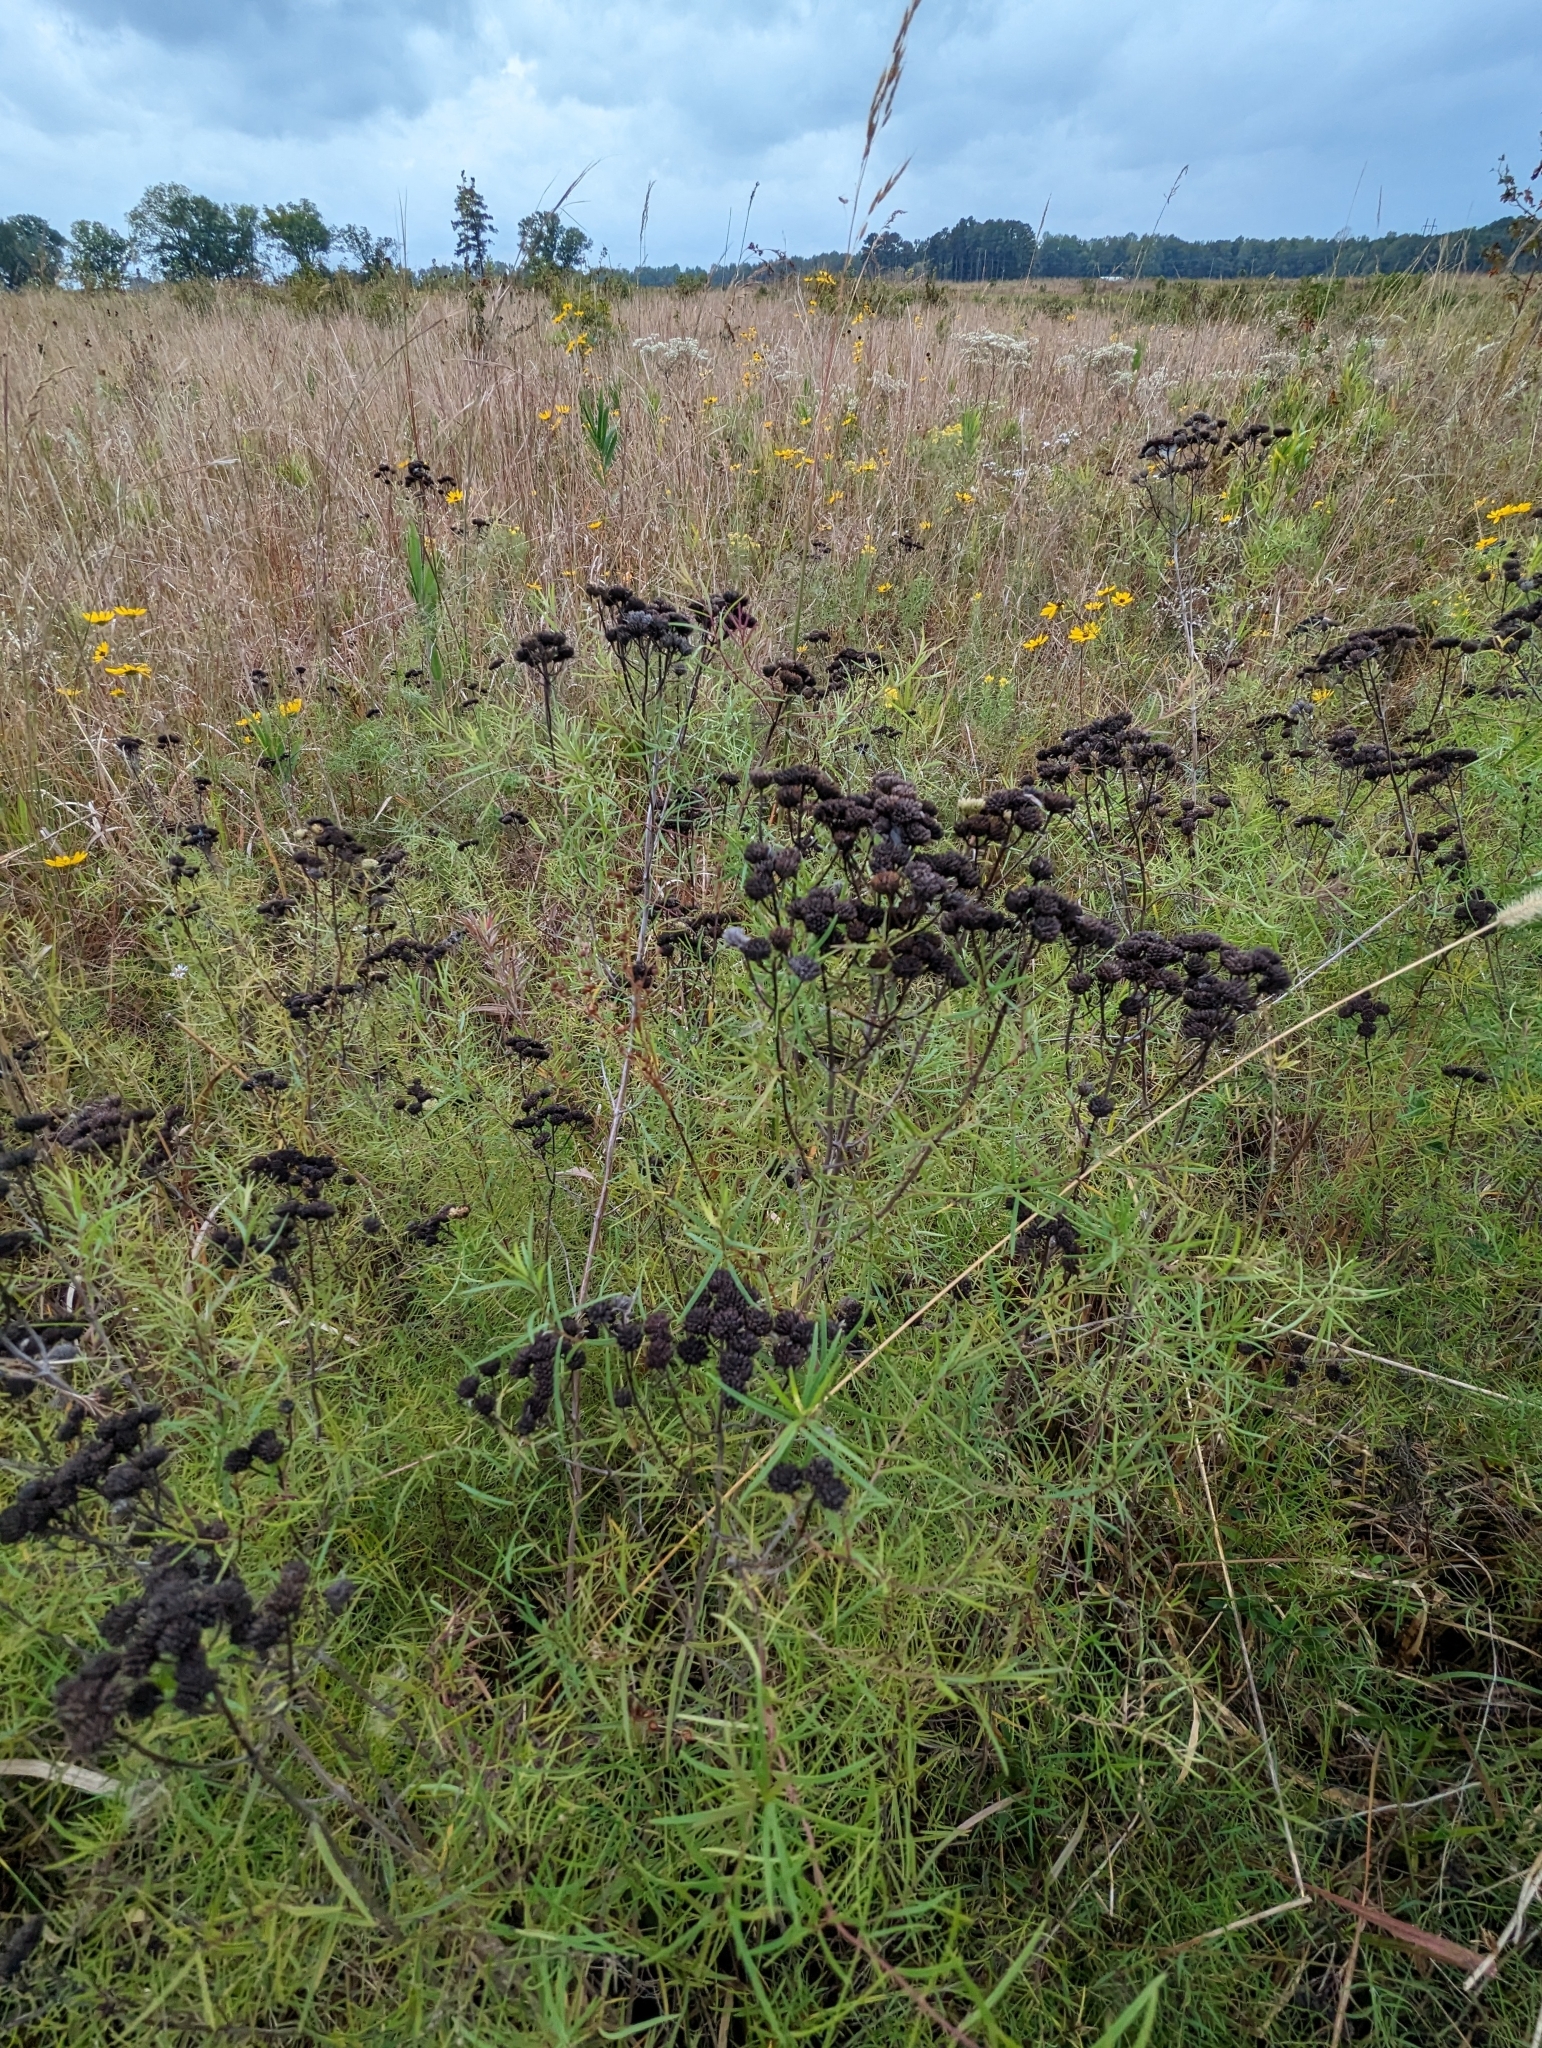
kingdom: Plantae
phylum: Tracheophyta
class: Magnoliopsida
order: Lamiales
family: Lamiaceae
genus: Pycnanthemum
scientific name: Pycnanthemum tenuifolium
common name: Narrow-leaf mountain-mint
